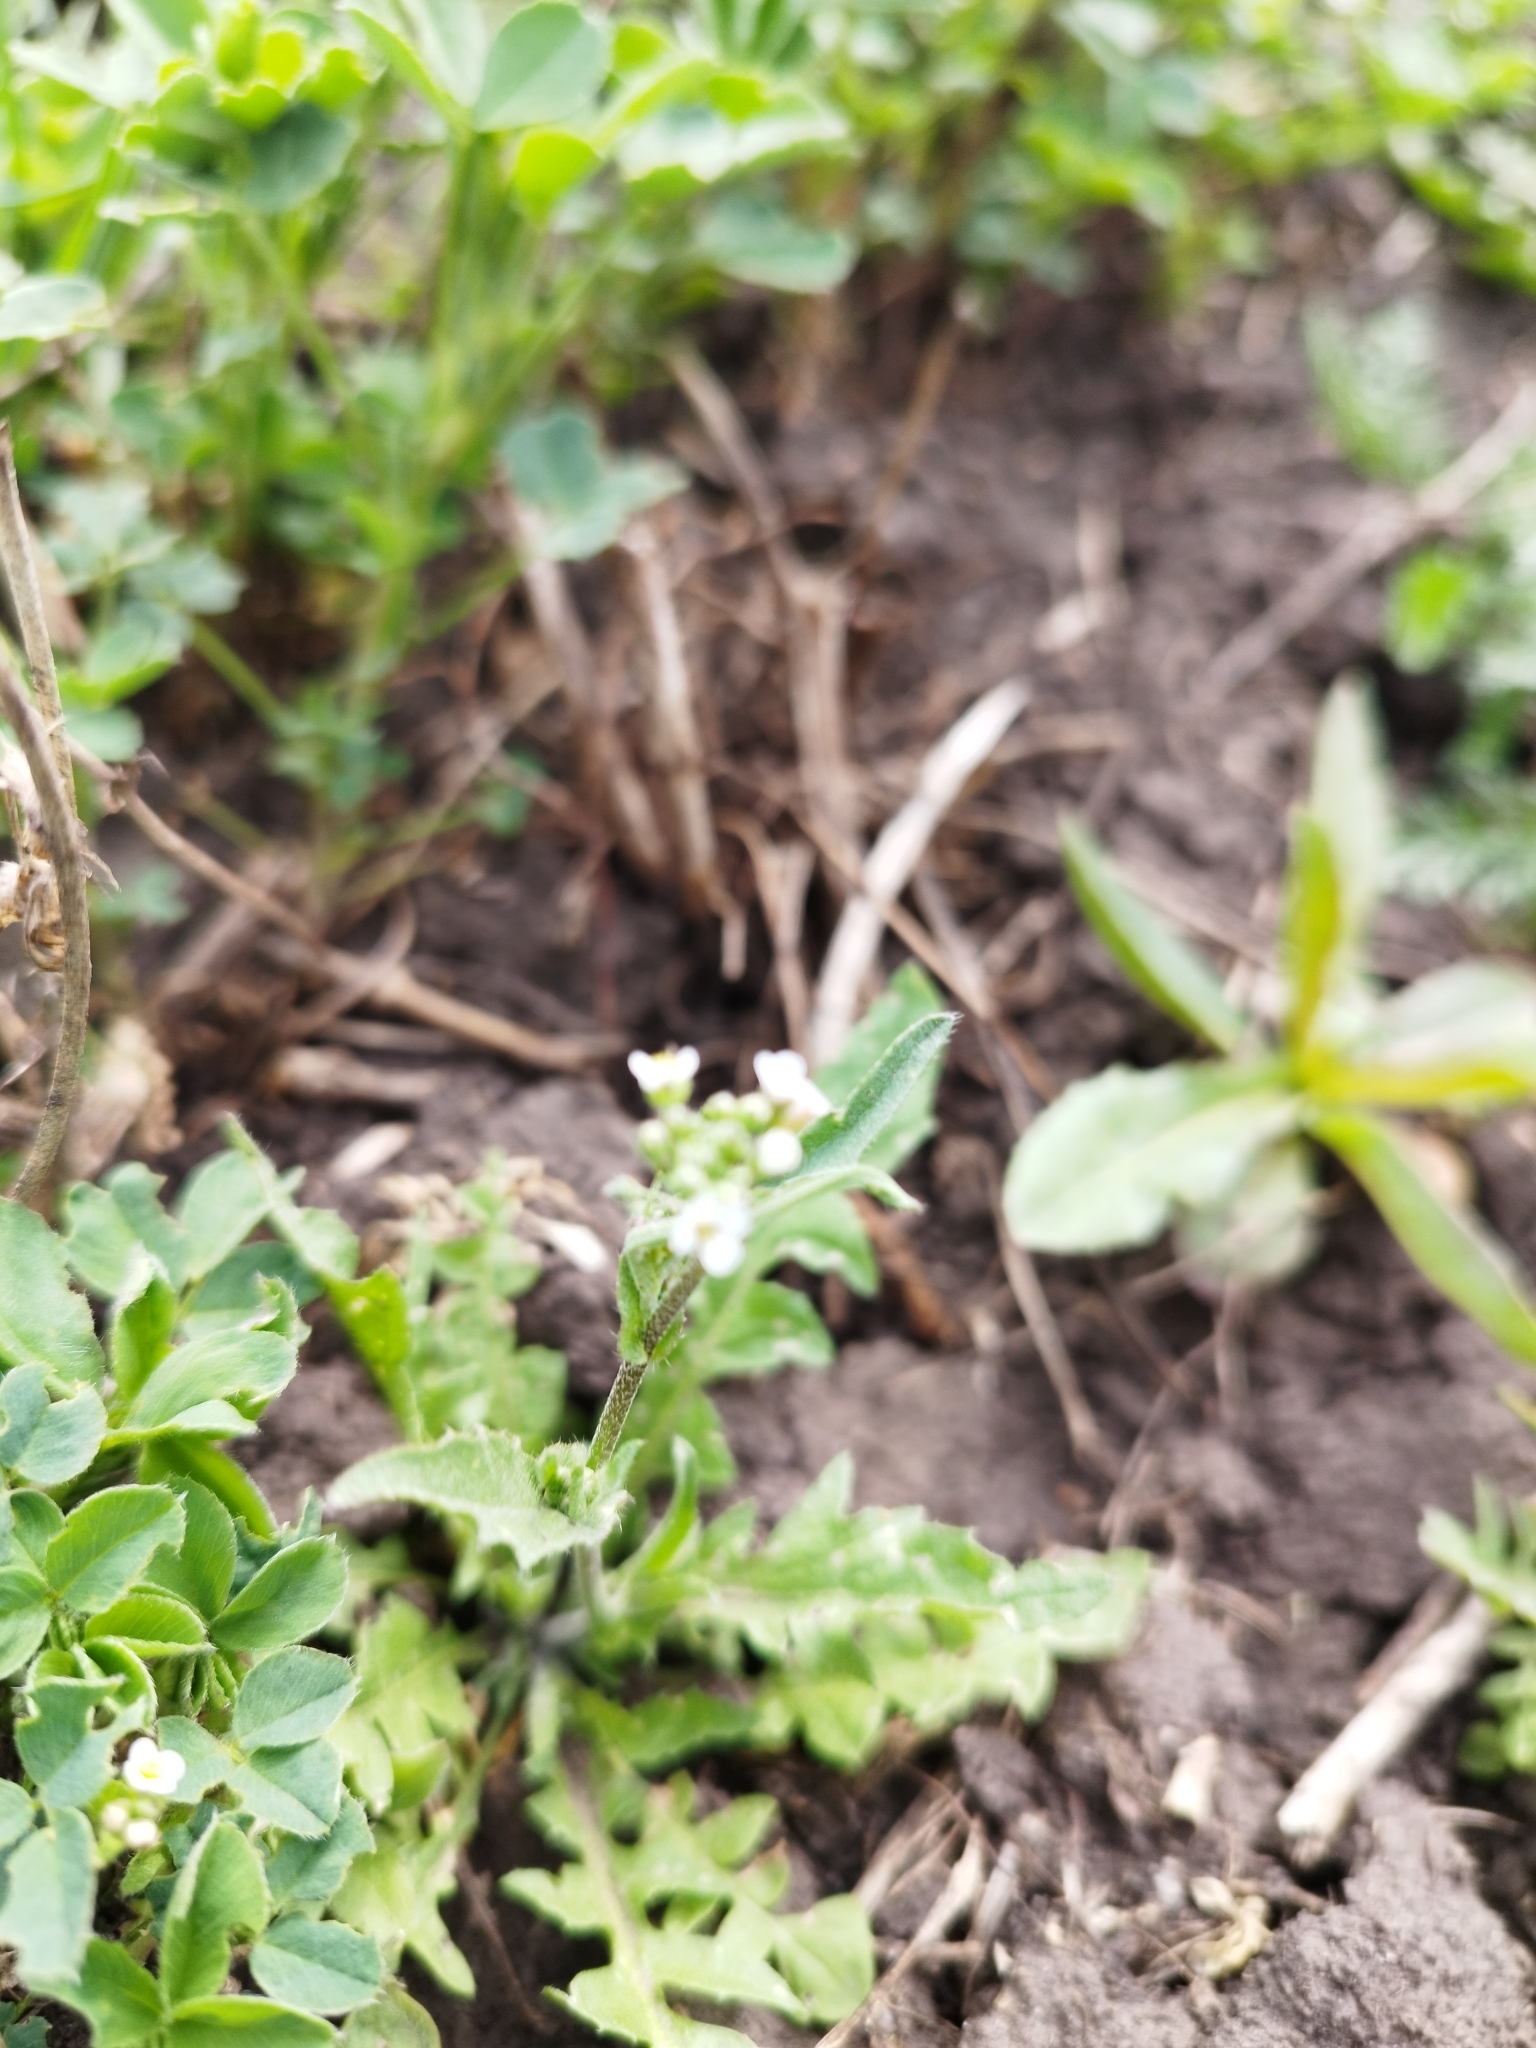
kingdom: Plantae
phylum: Tracheophyta
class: Magnoliopsida
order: Brassicales
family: Brassicaceae
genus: Capsella
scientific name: Capsella bursa-pastoris
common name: Shepherd's purse
